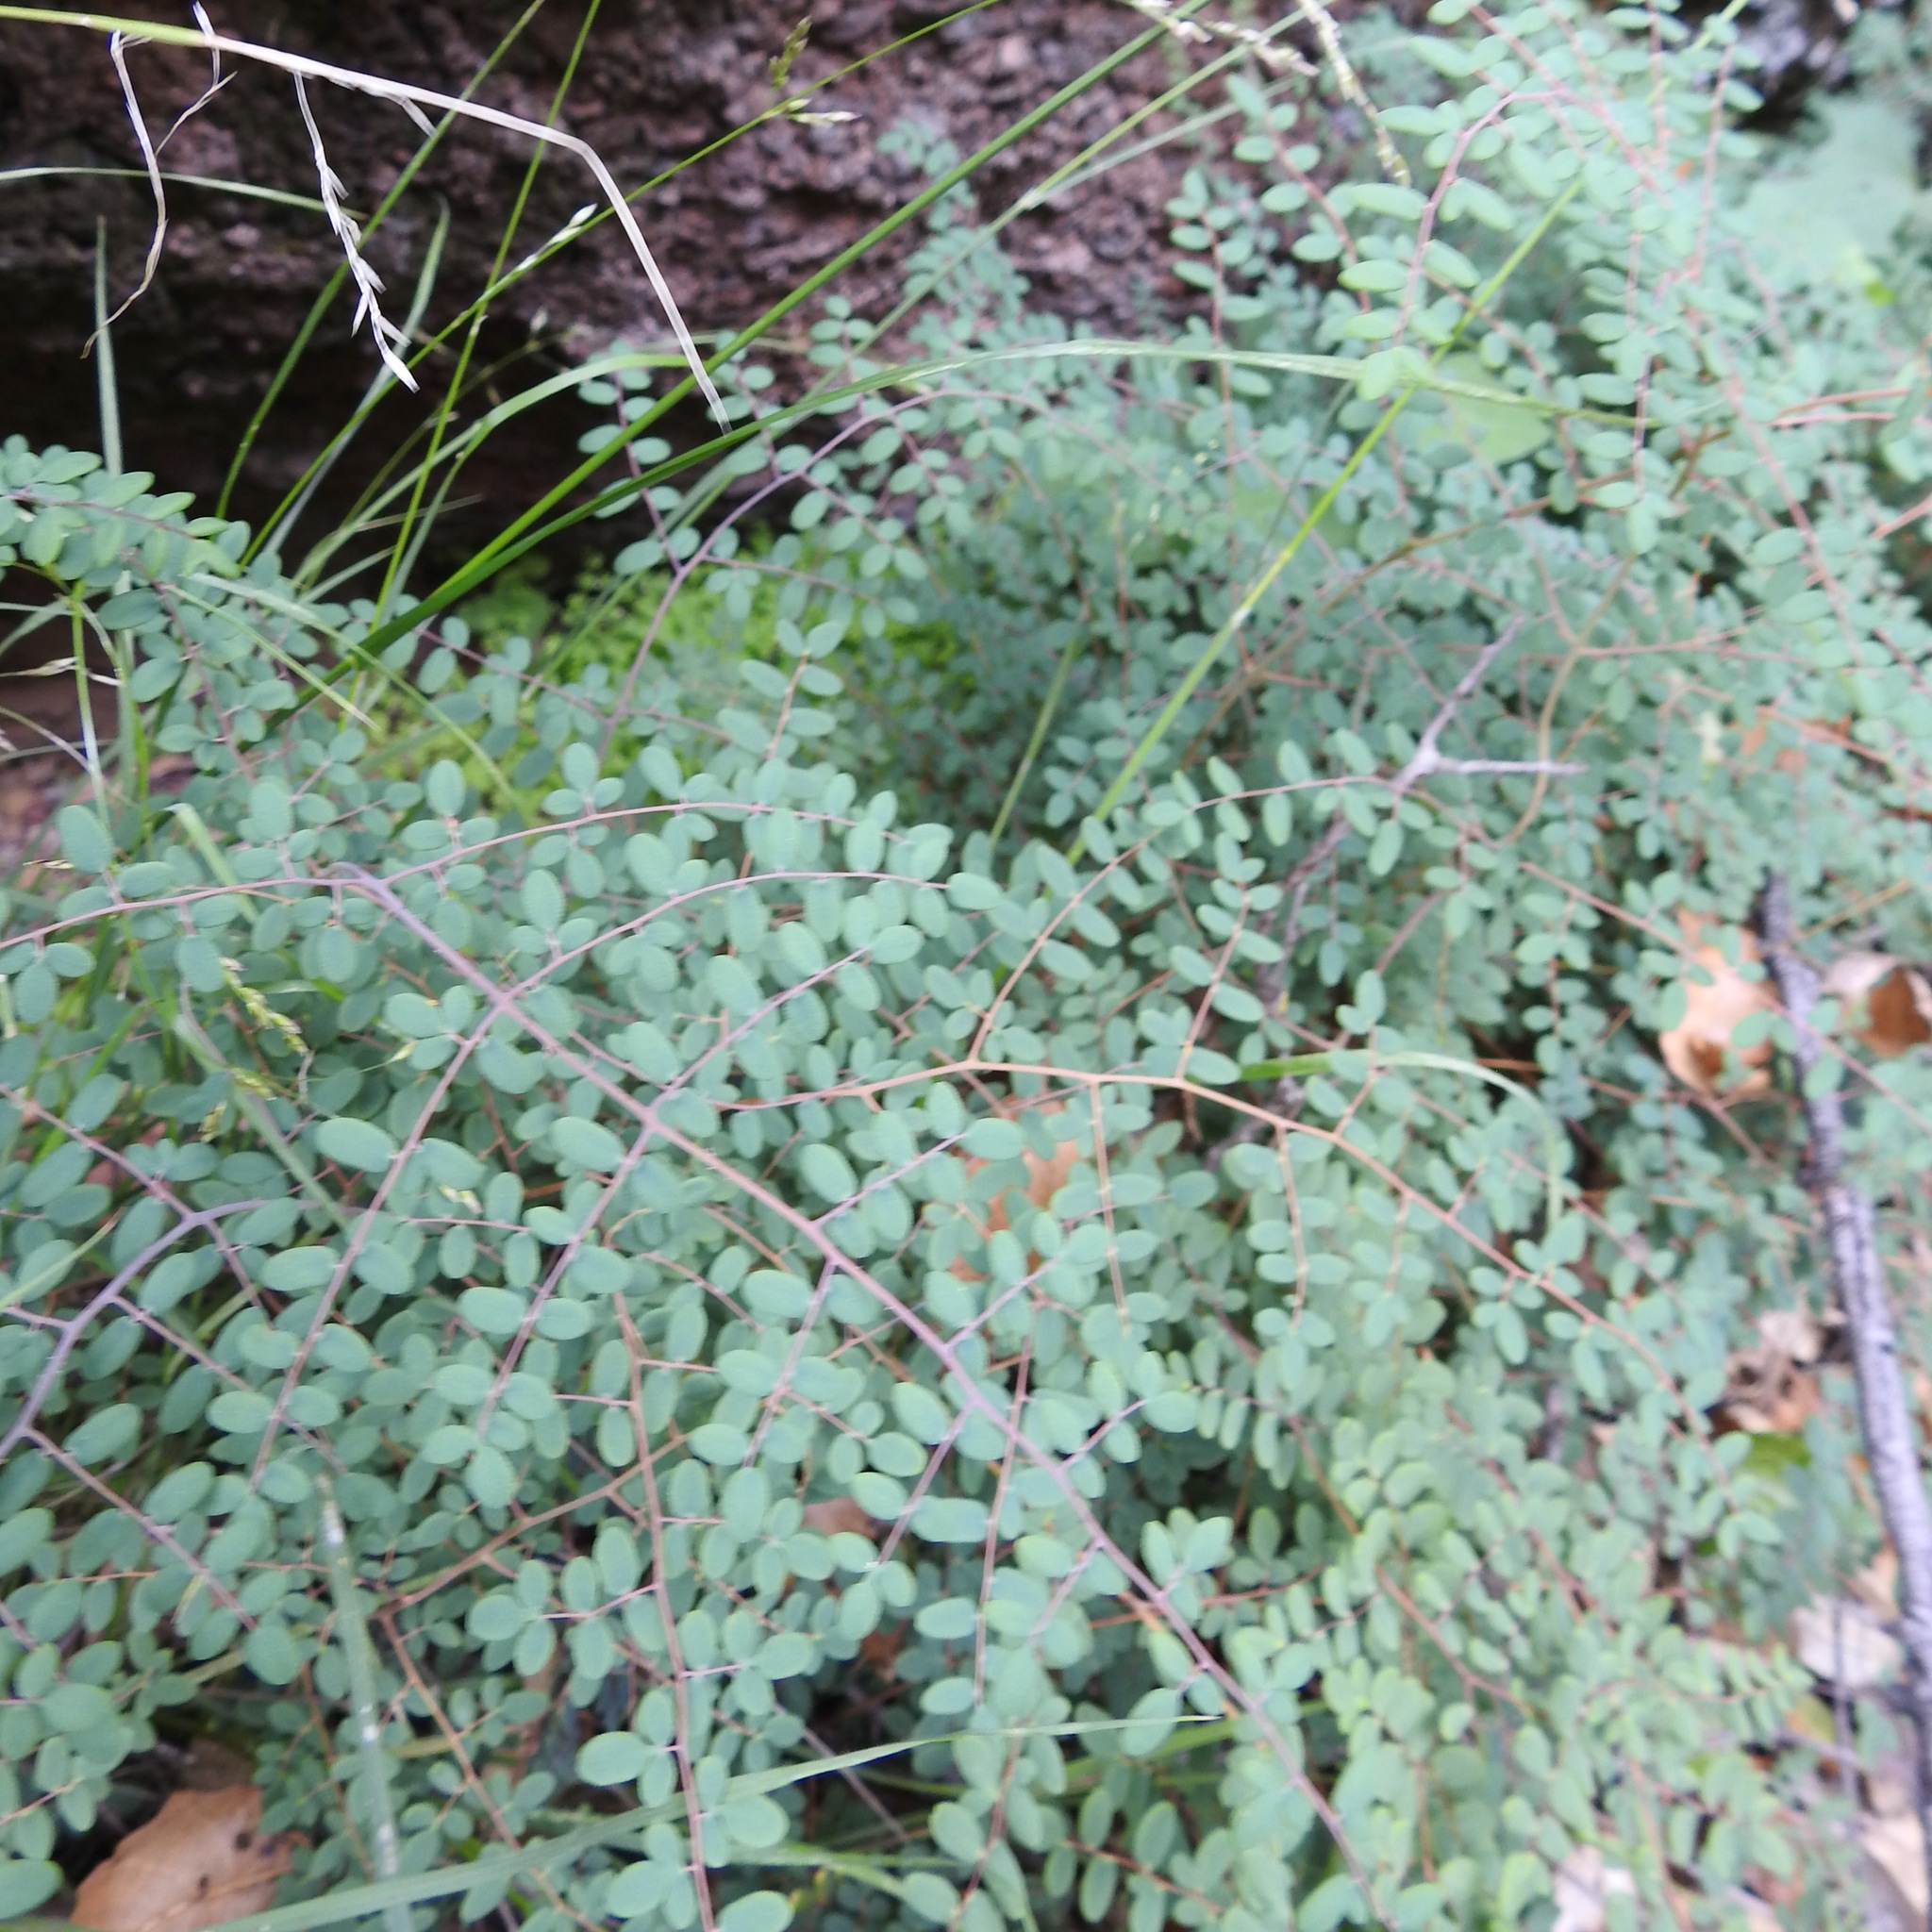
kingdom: Plantae
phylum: Tracheophyta
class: Polypodiopsida
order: Polypodiales
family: Pteridaceae
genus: Pellaea
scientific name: Pellaea andromedifolia
